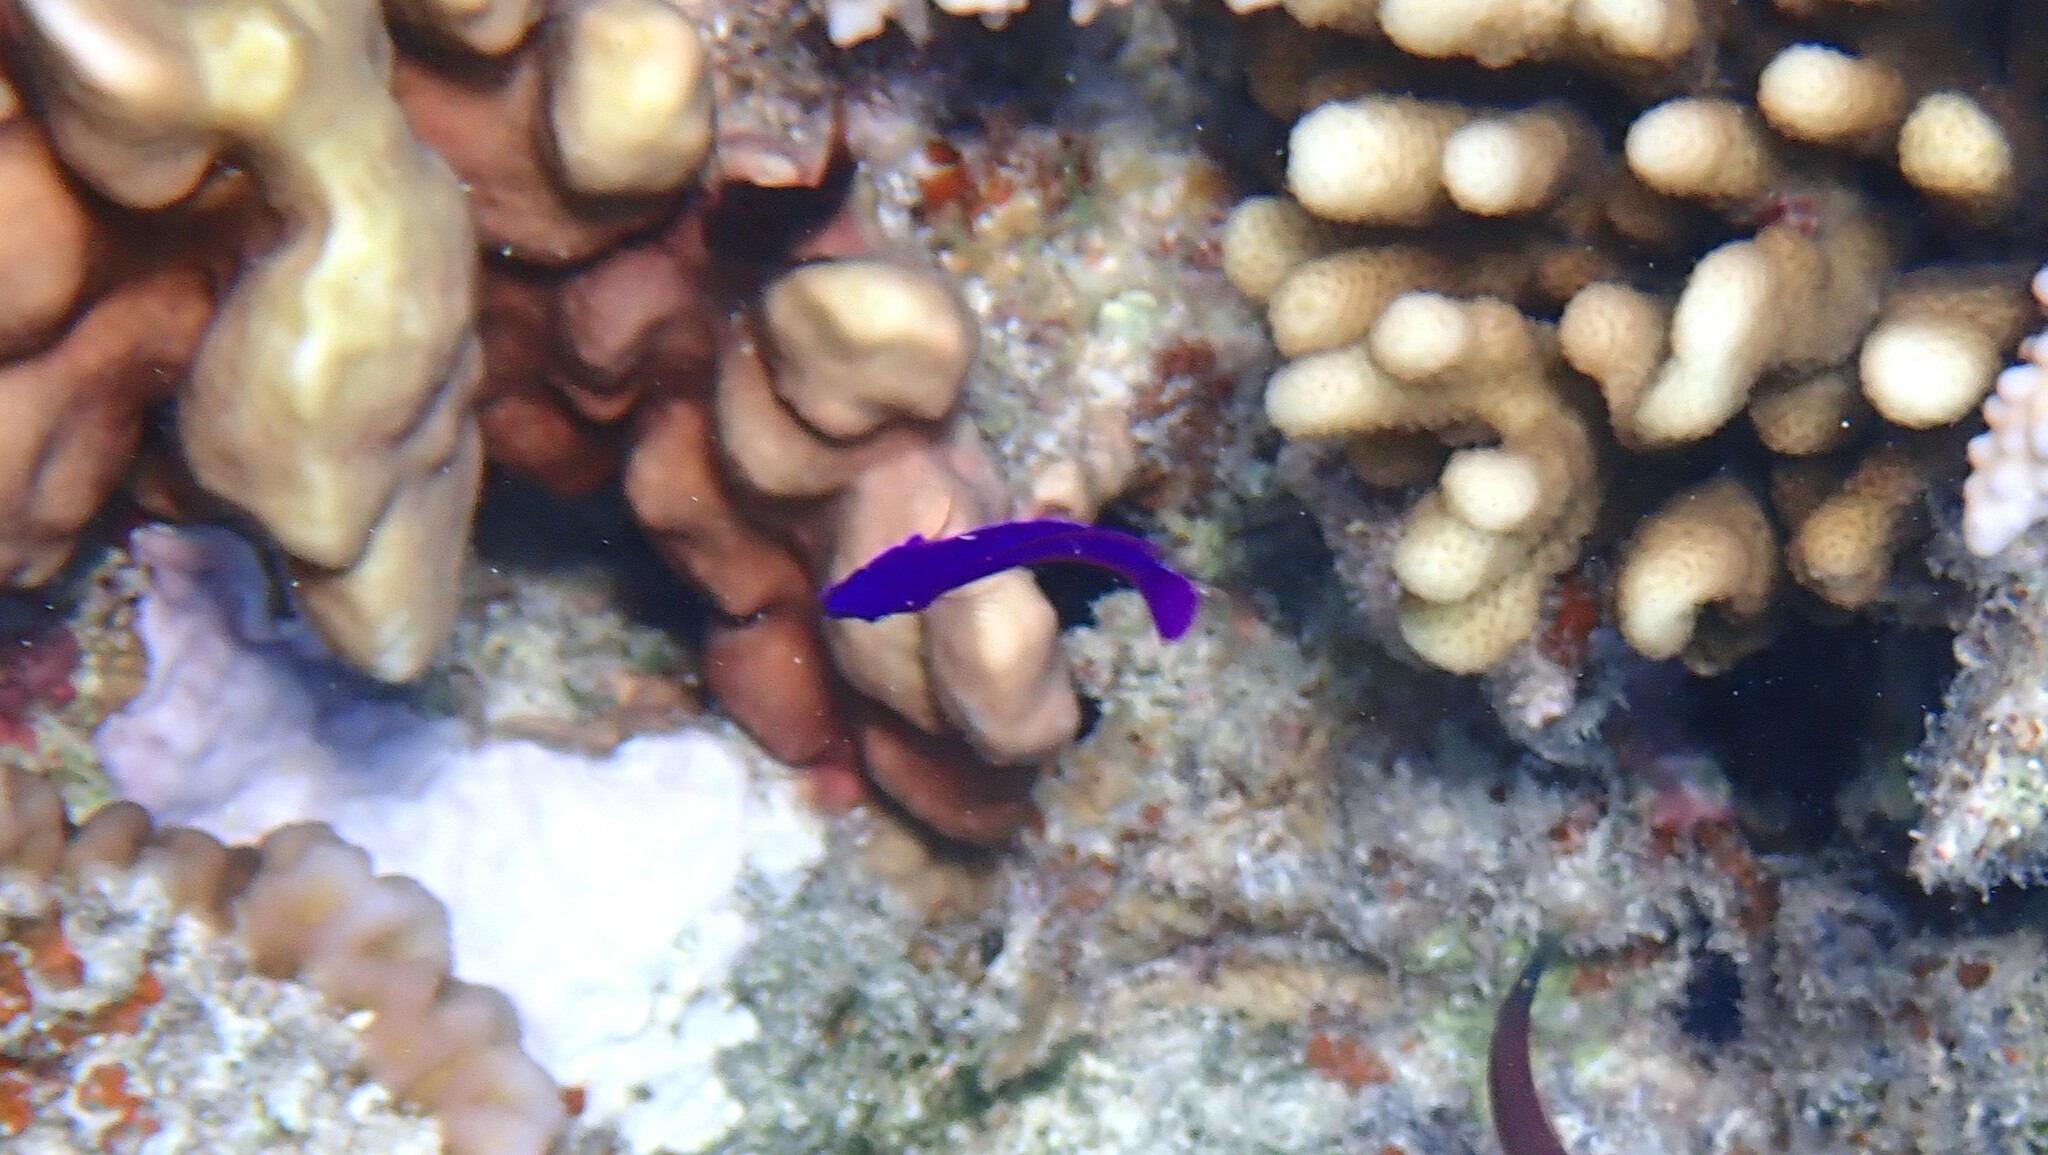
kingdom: Animalia
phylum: Chordata
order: Perciformes
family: Pseudochromidae
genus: Pseudochromis
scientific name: Pseudochromis fridmani
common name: Orchid dottyback
